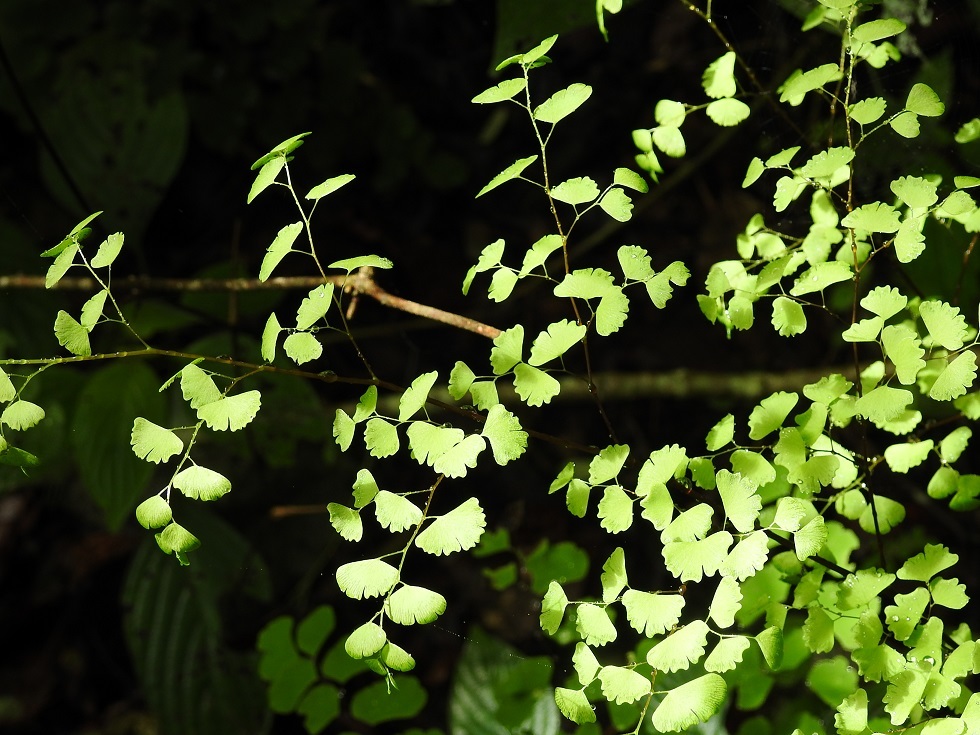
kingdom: Plantae
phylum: Tracheophyta
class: Polypodiopsida
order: Polypodiales
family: Pteridaceae
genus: Adiantum
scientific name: Adiantum poiretii
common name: Mexican maidenhair
